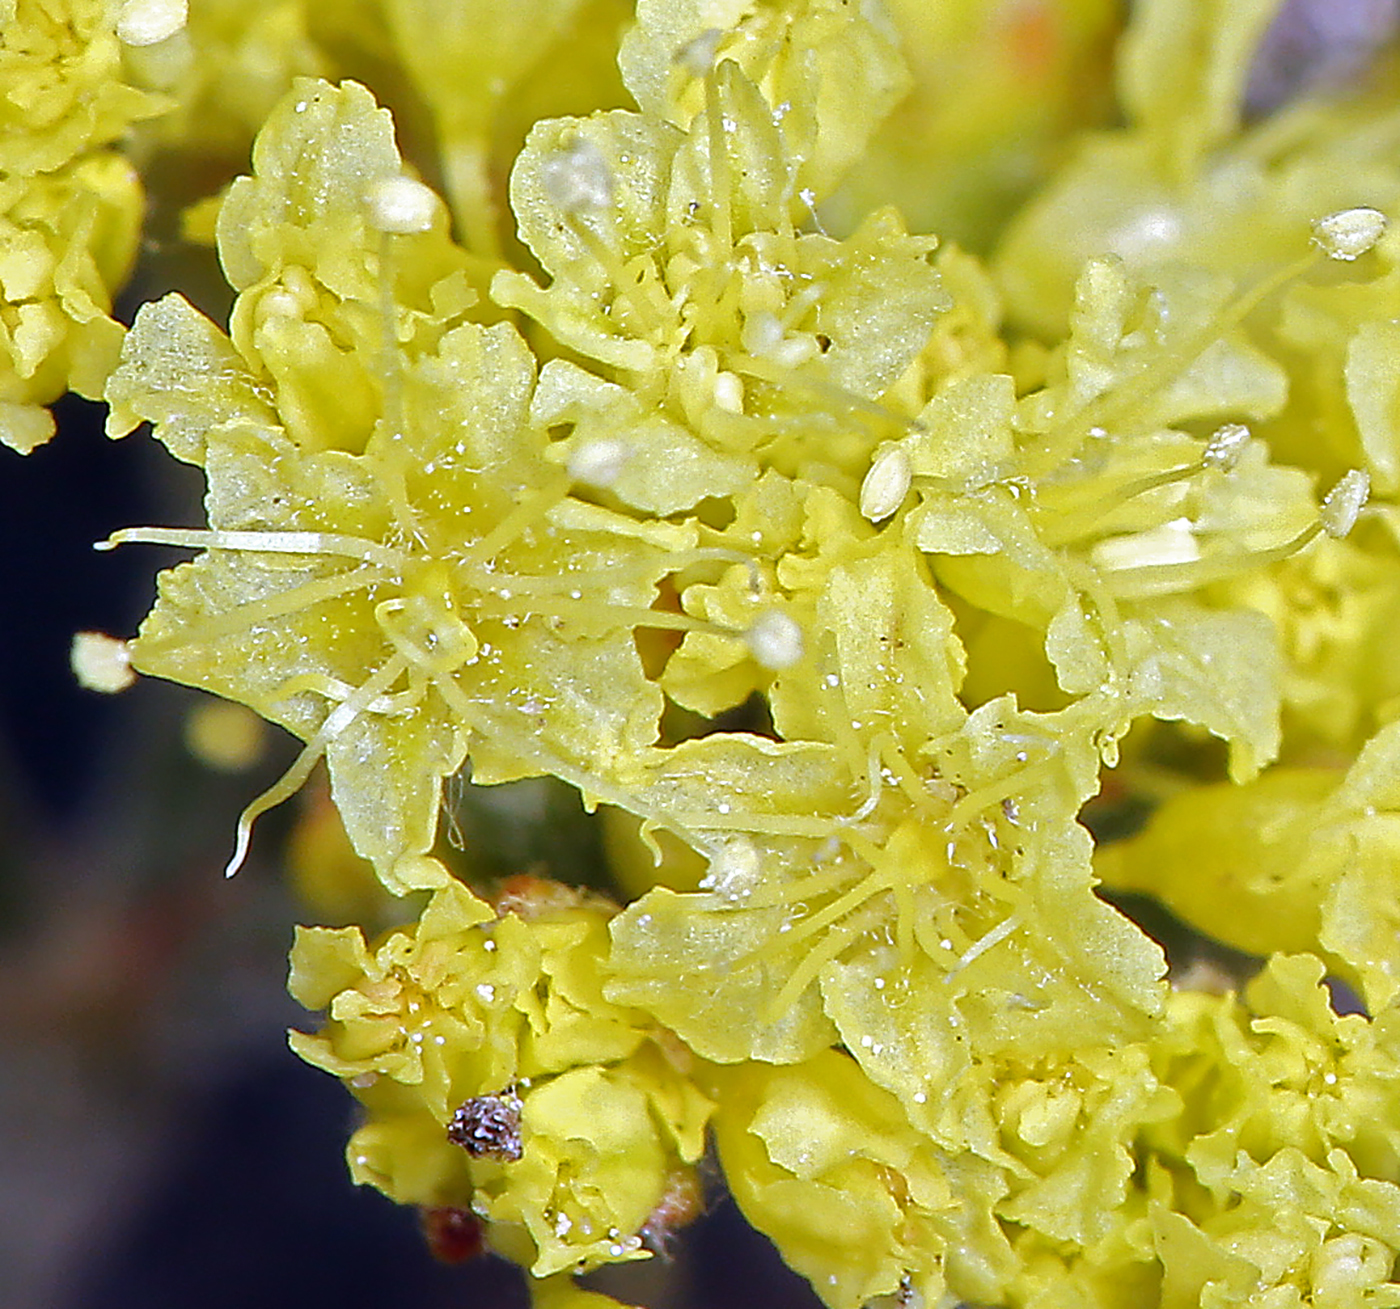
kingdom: Plantae
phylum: Tracheophyta
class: Magnoliopsida
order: Caryophyllales
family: Polygonaceae
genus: Eriogonum
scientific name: Eriogonum microtheca
